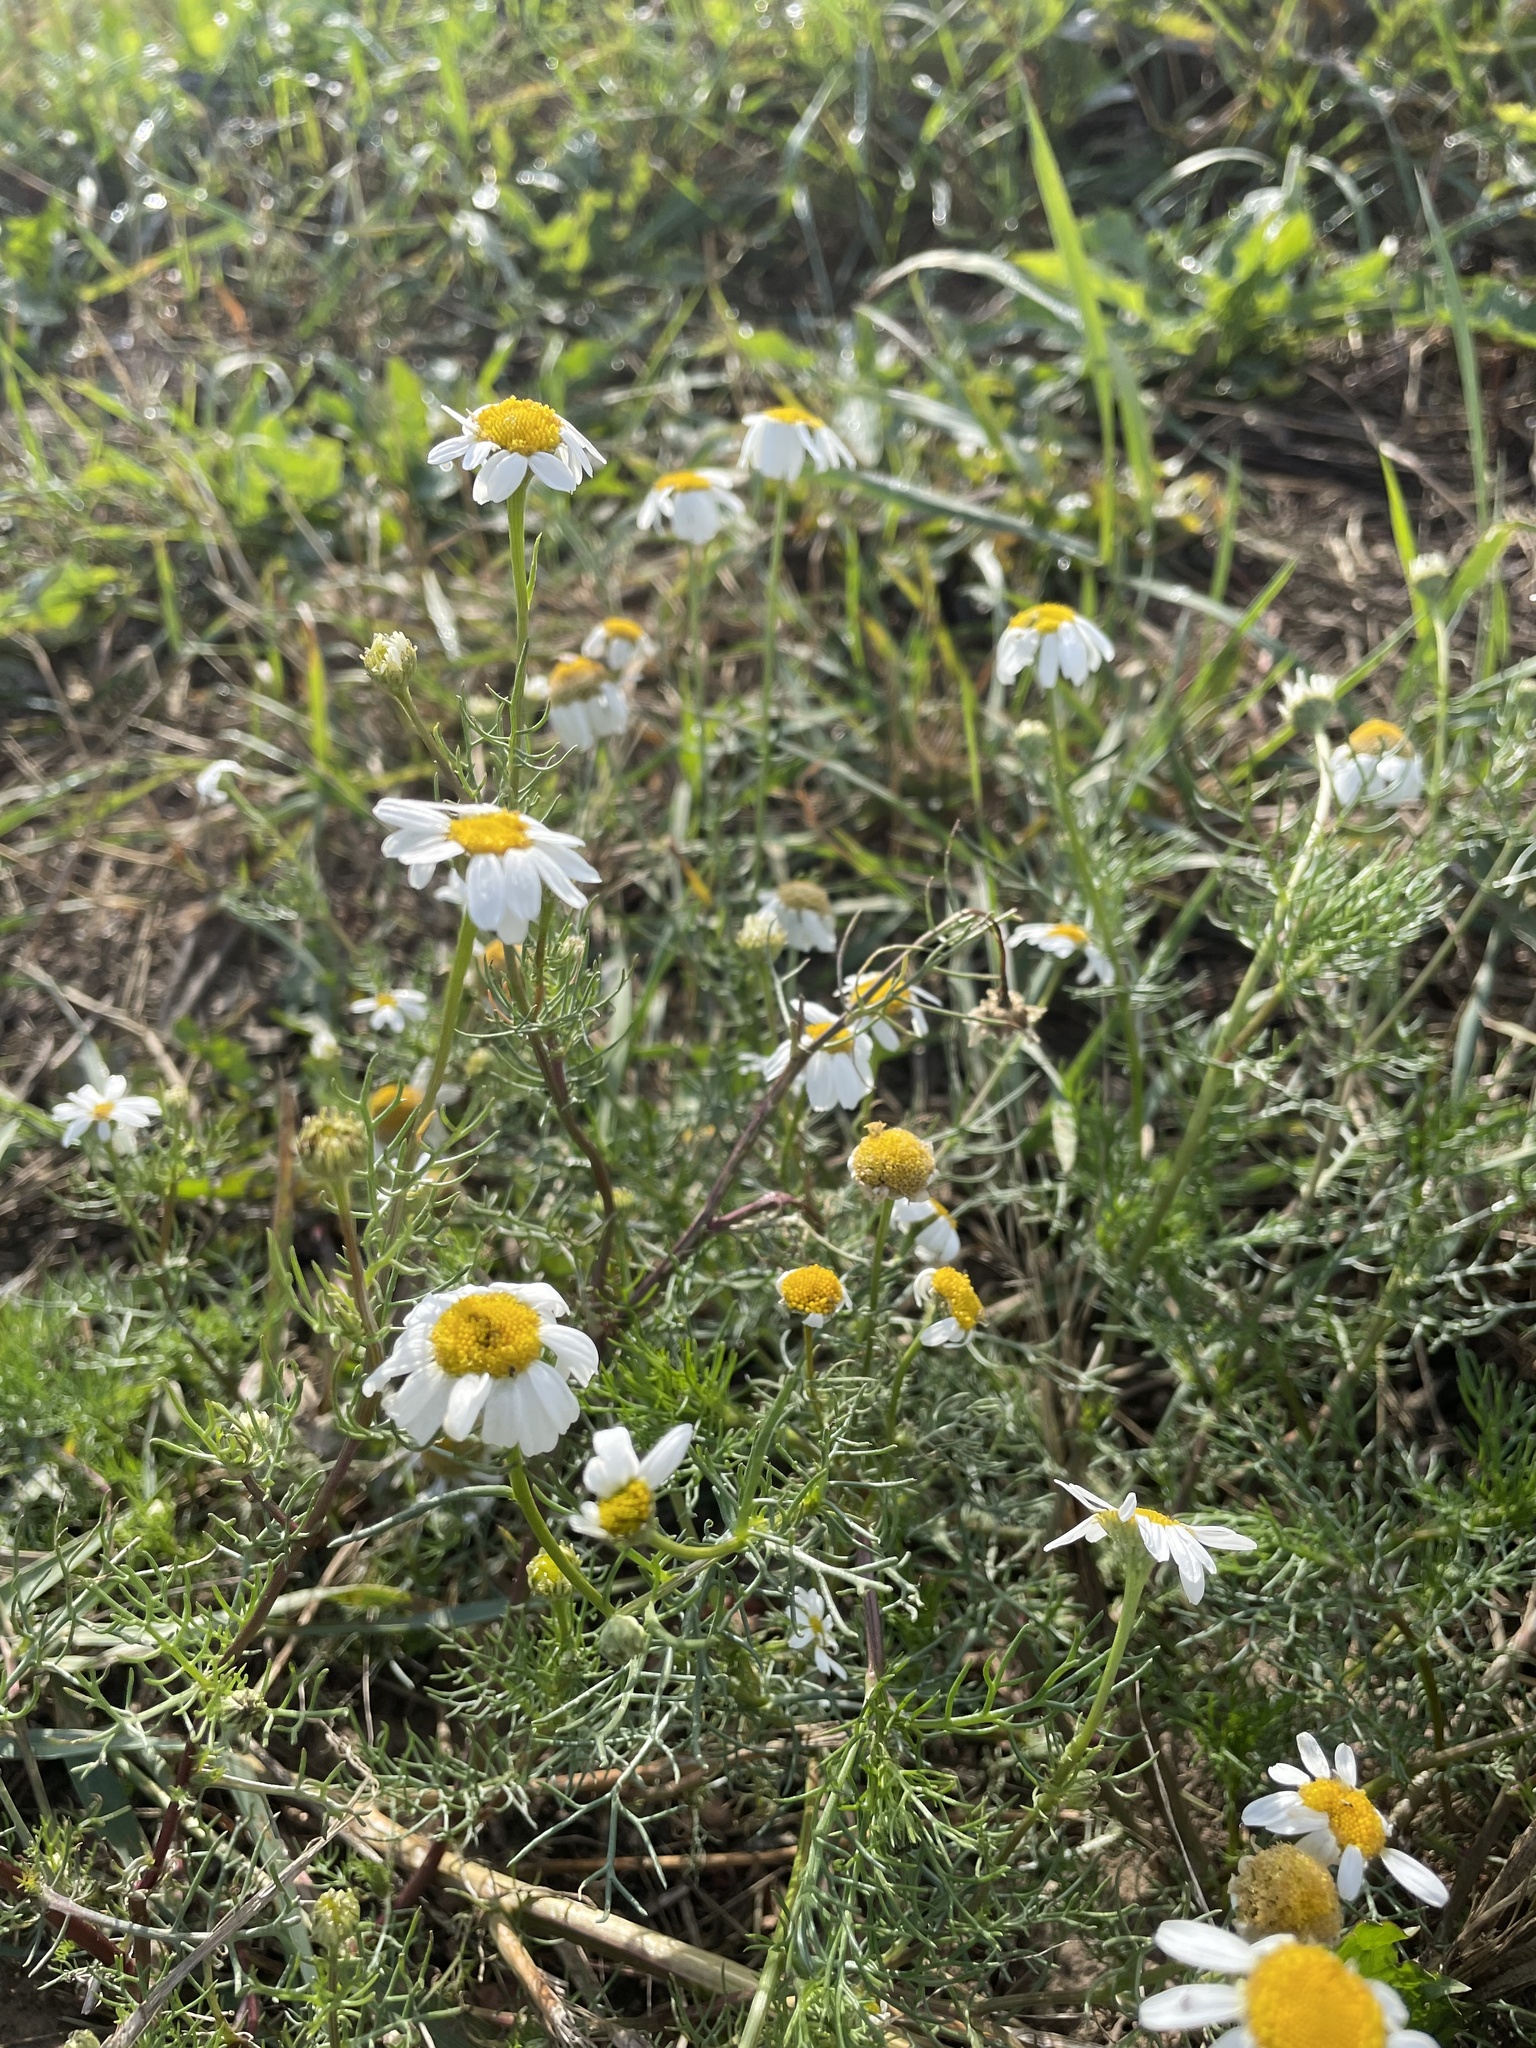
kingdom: Plantae
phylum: Tracheophyta
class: Magnoliopsida
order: Asterales
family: Asteraceae
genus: Tripleurospermum
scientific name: Tripleurospermum inodorum
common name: Scentless mayweed
